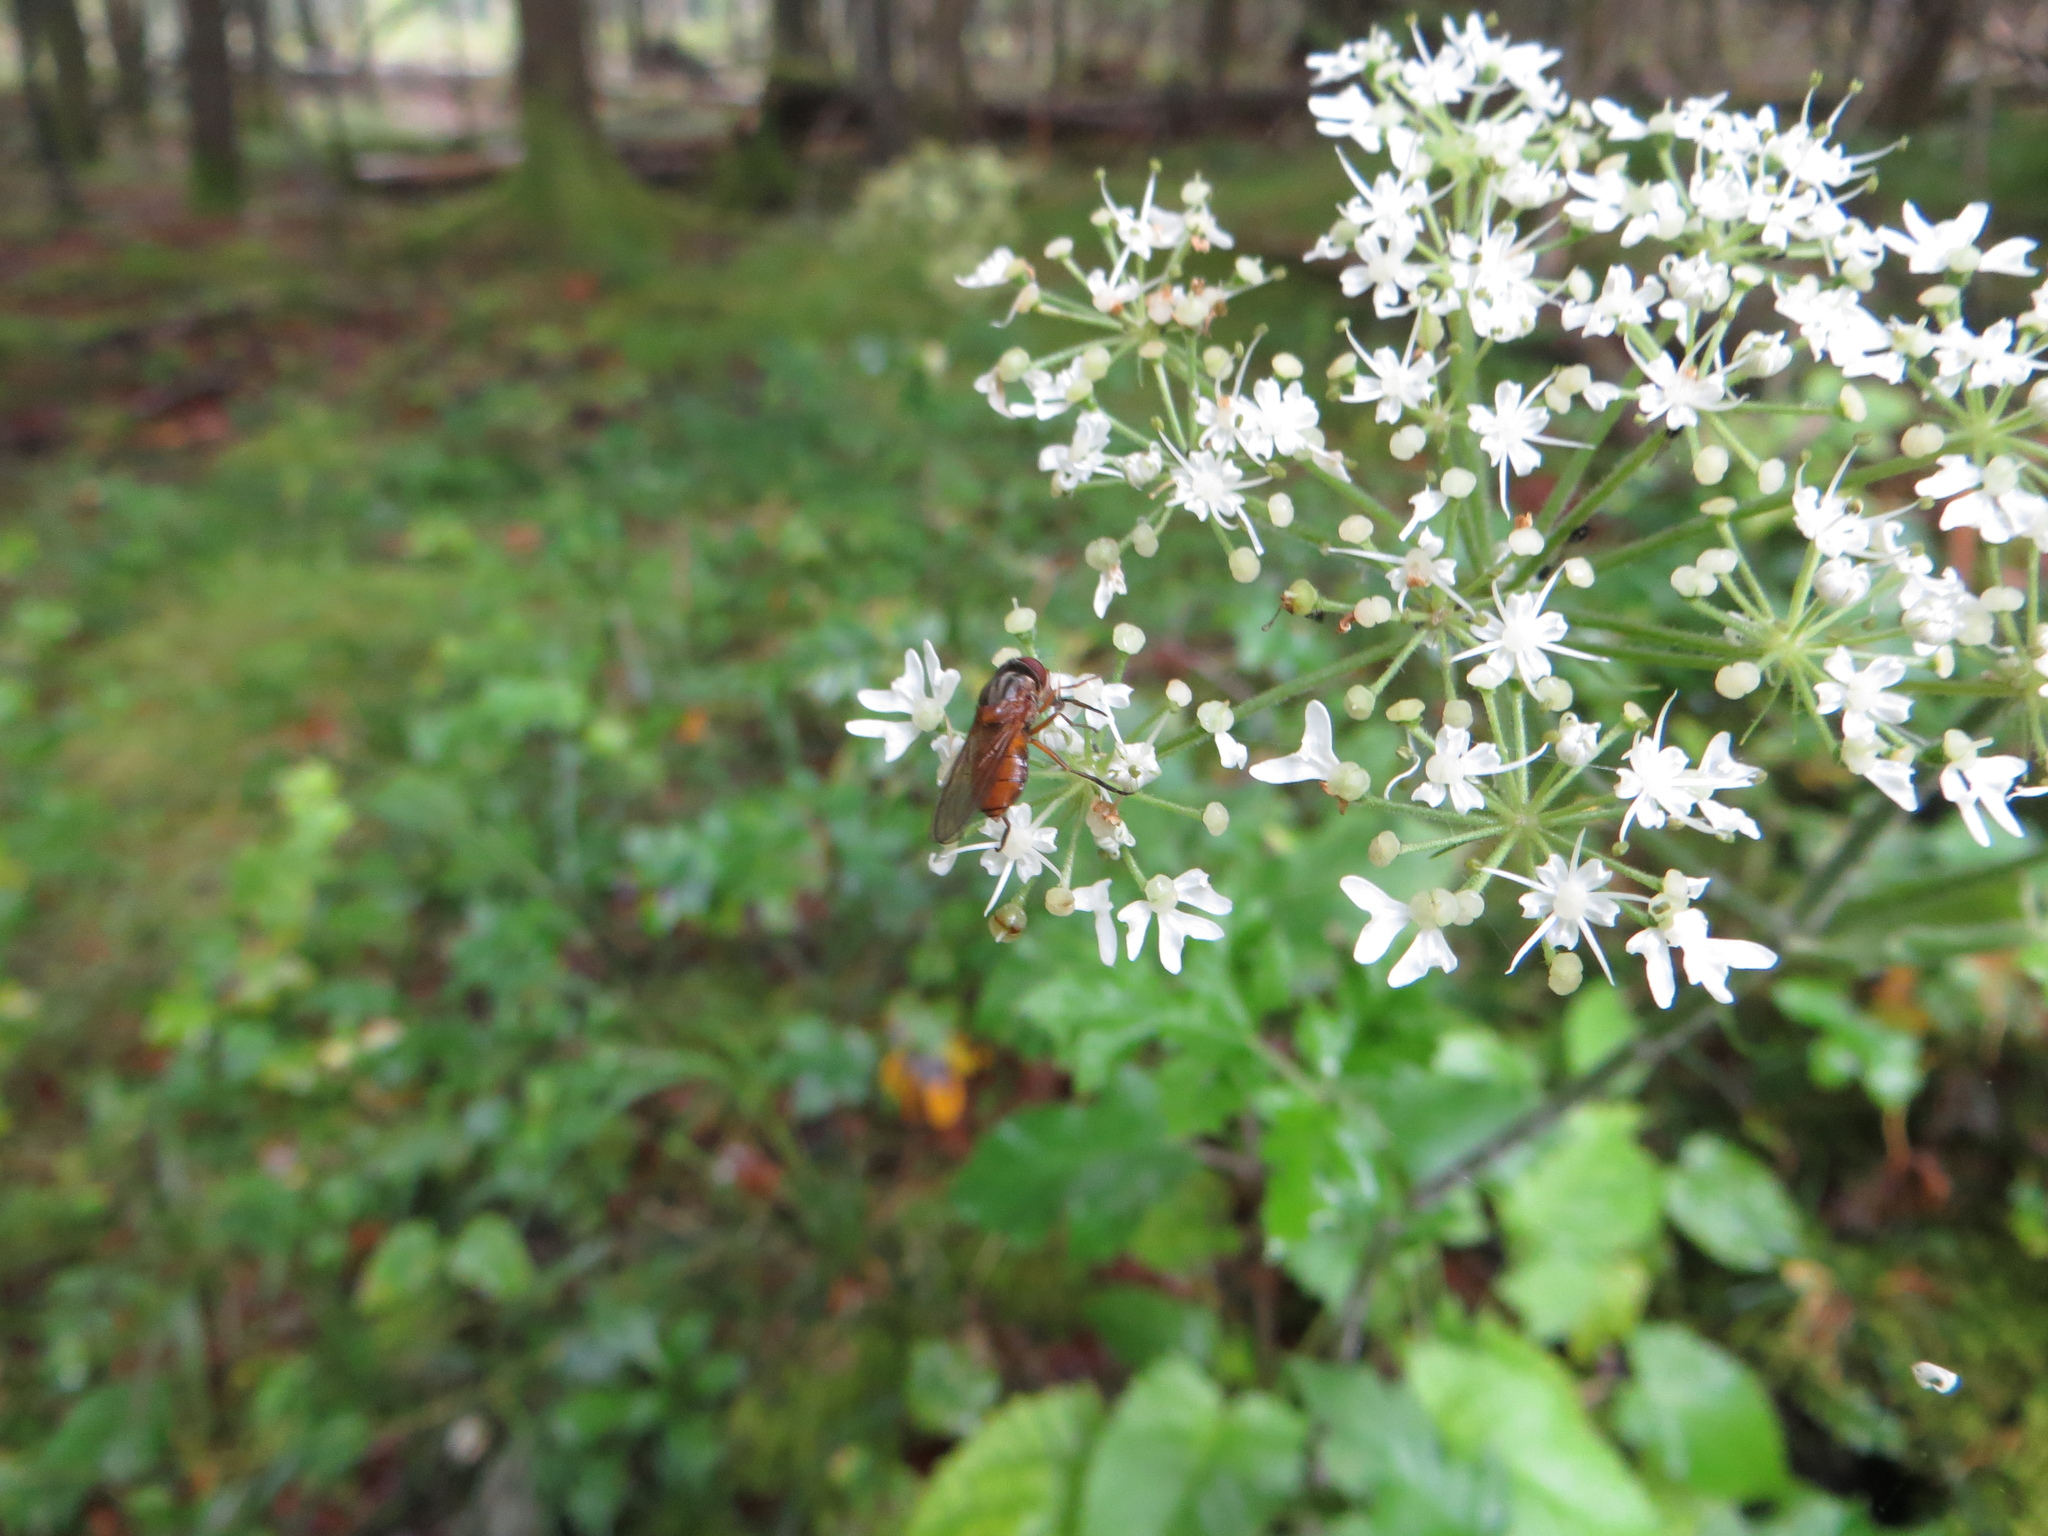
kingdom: Animalia
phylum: Arthropoda
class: Insecta
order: Diptera
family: Syrphidae
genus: Rhingia
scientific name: Rhingia rostrata
